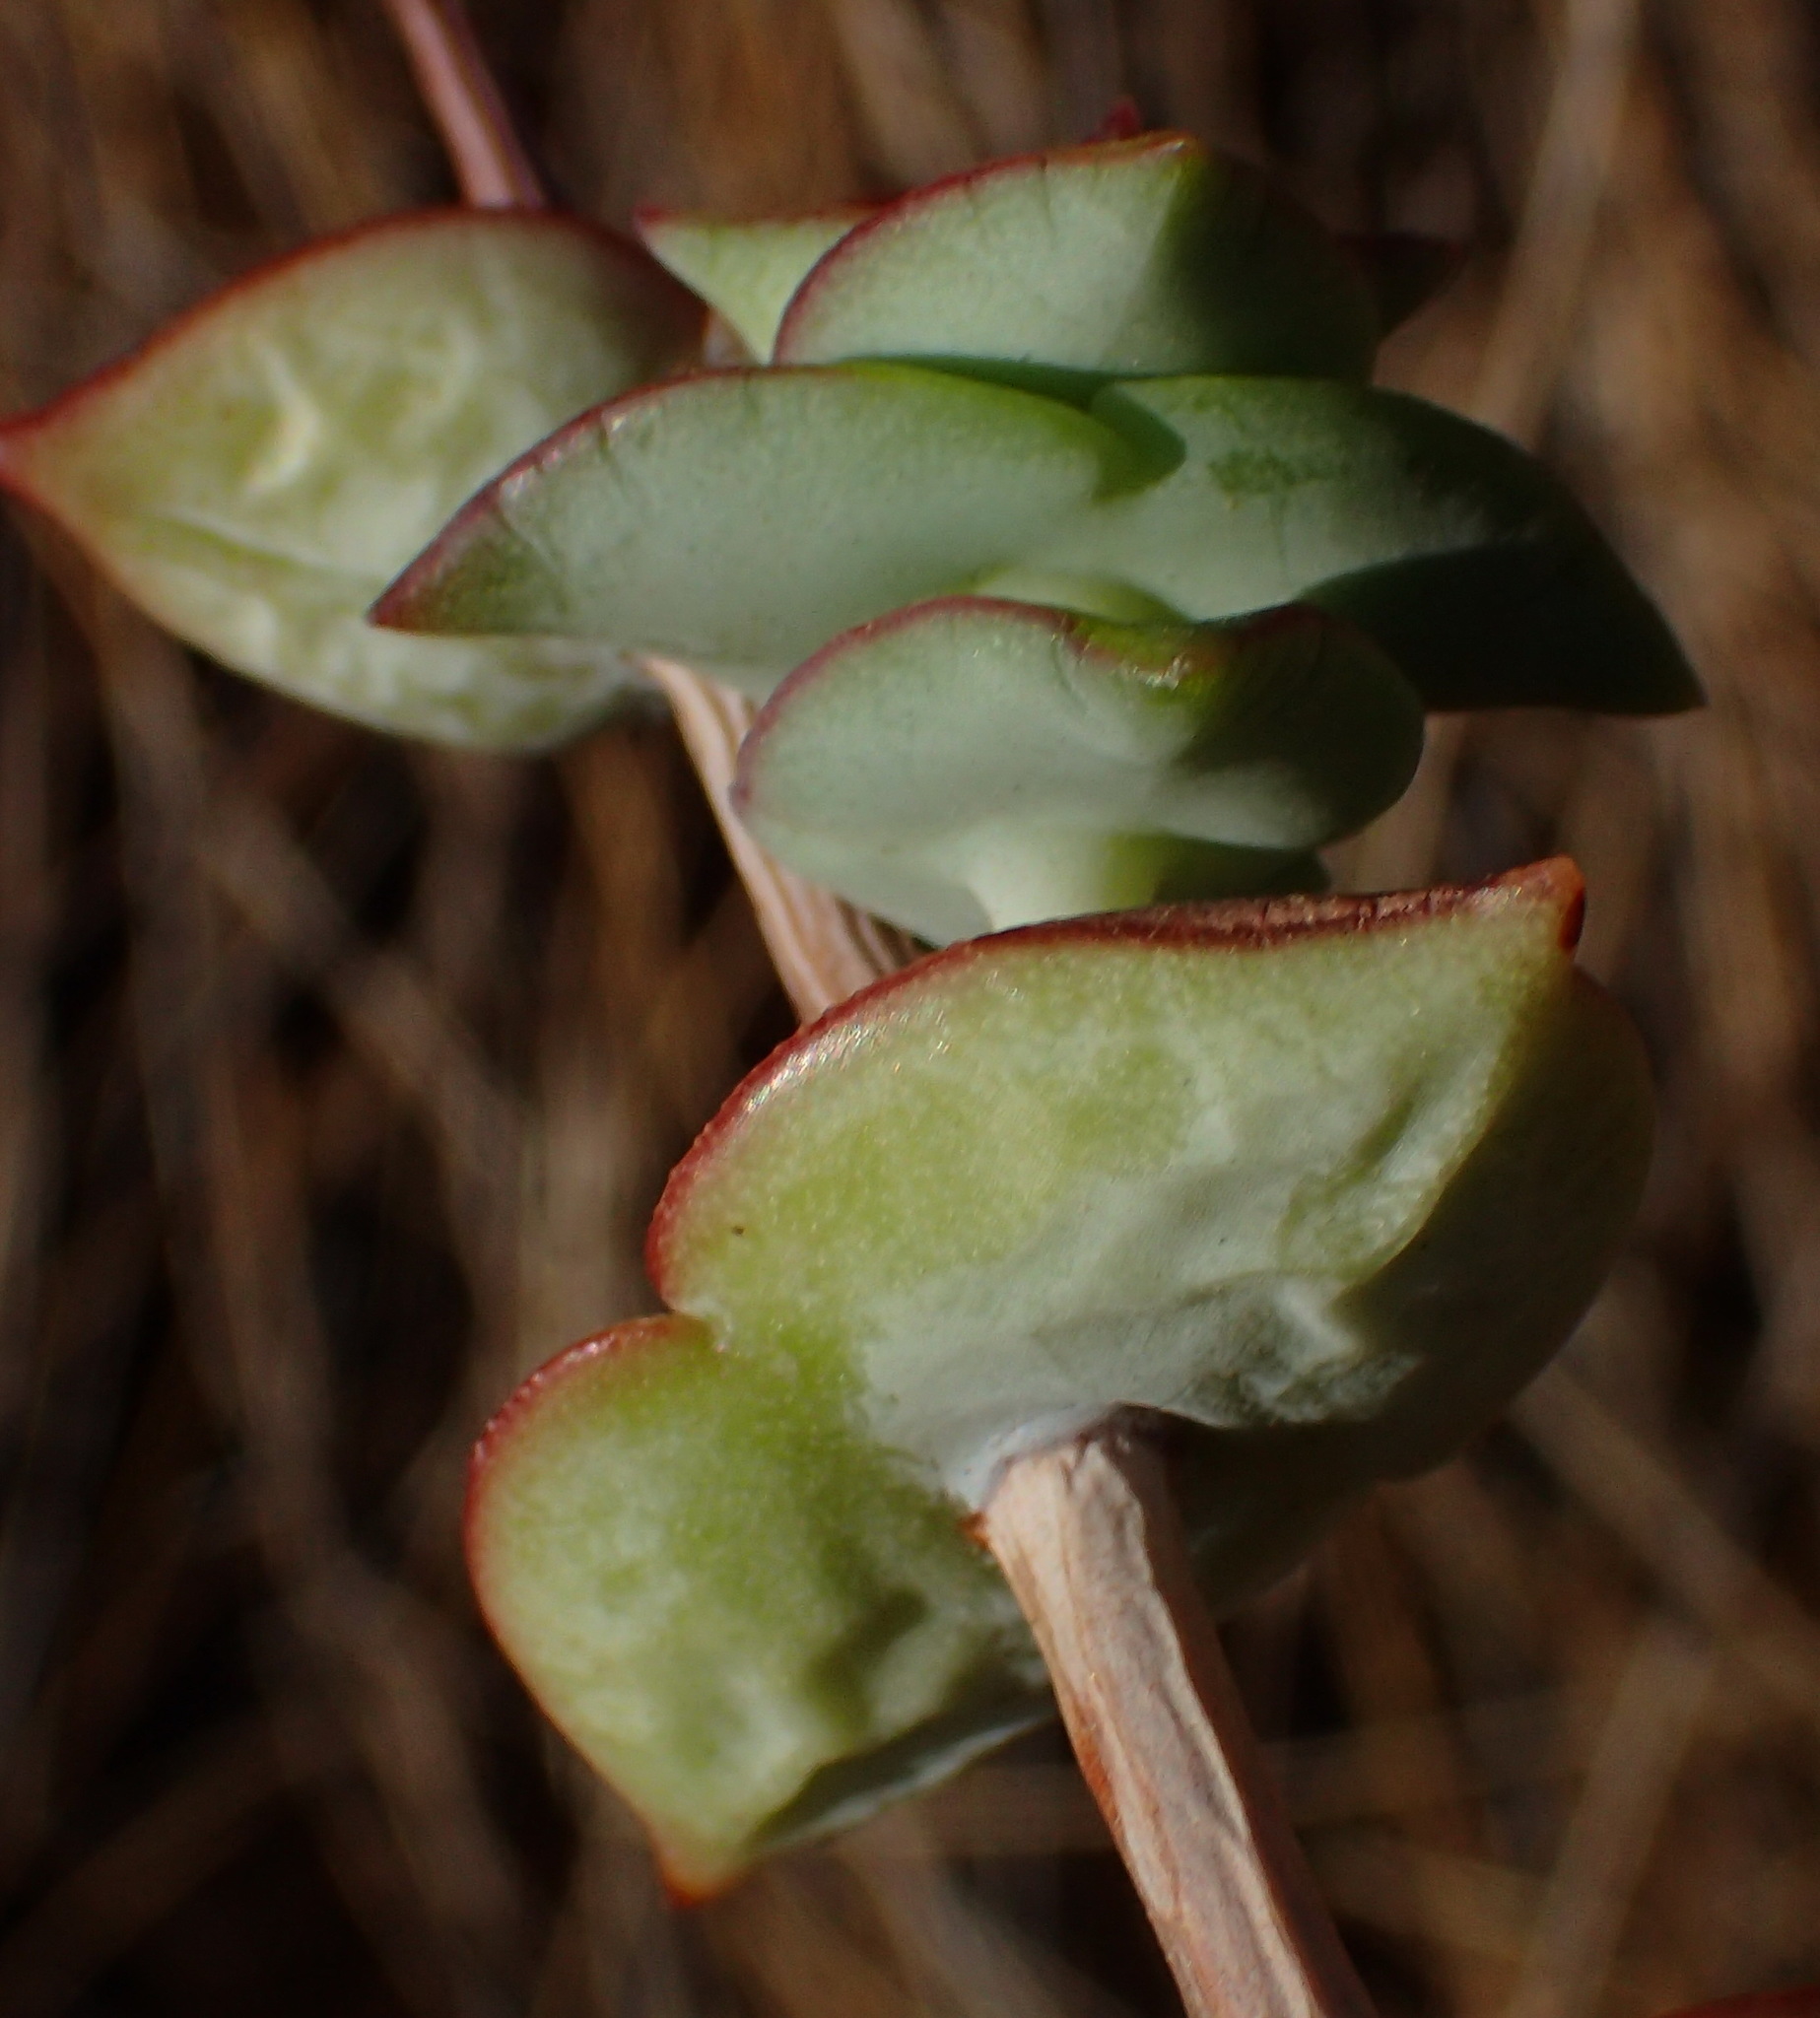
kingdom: Plantae
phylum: Tracheophyta
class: Magnoliopsida
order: Saxifragales
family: Crassulaceae
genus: Crassula
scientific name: Crassula perforata
